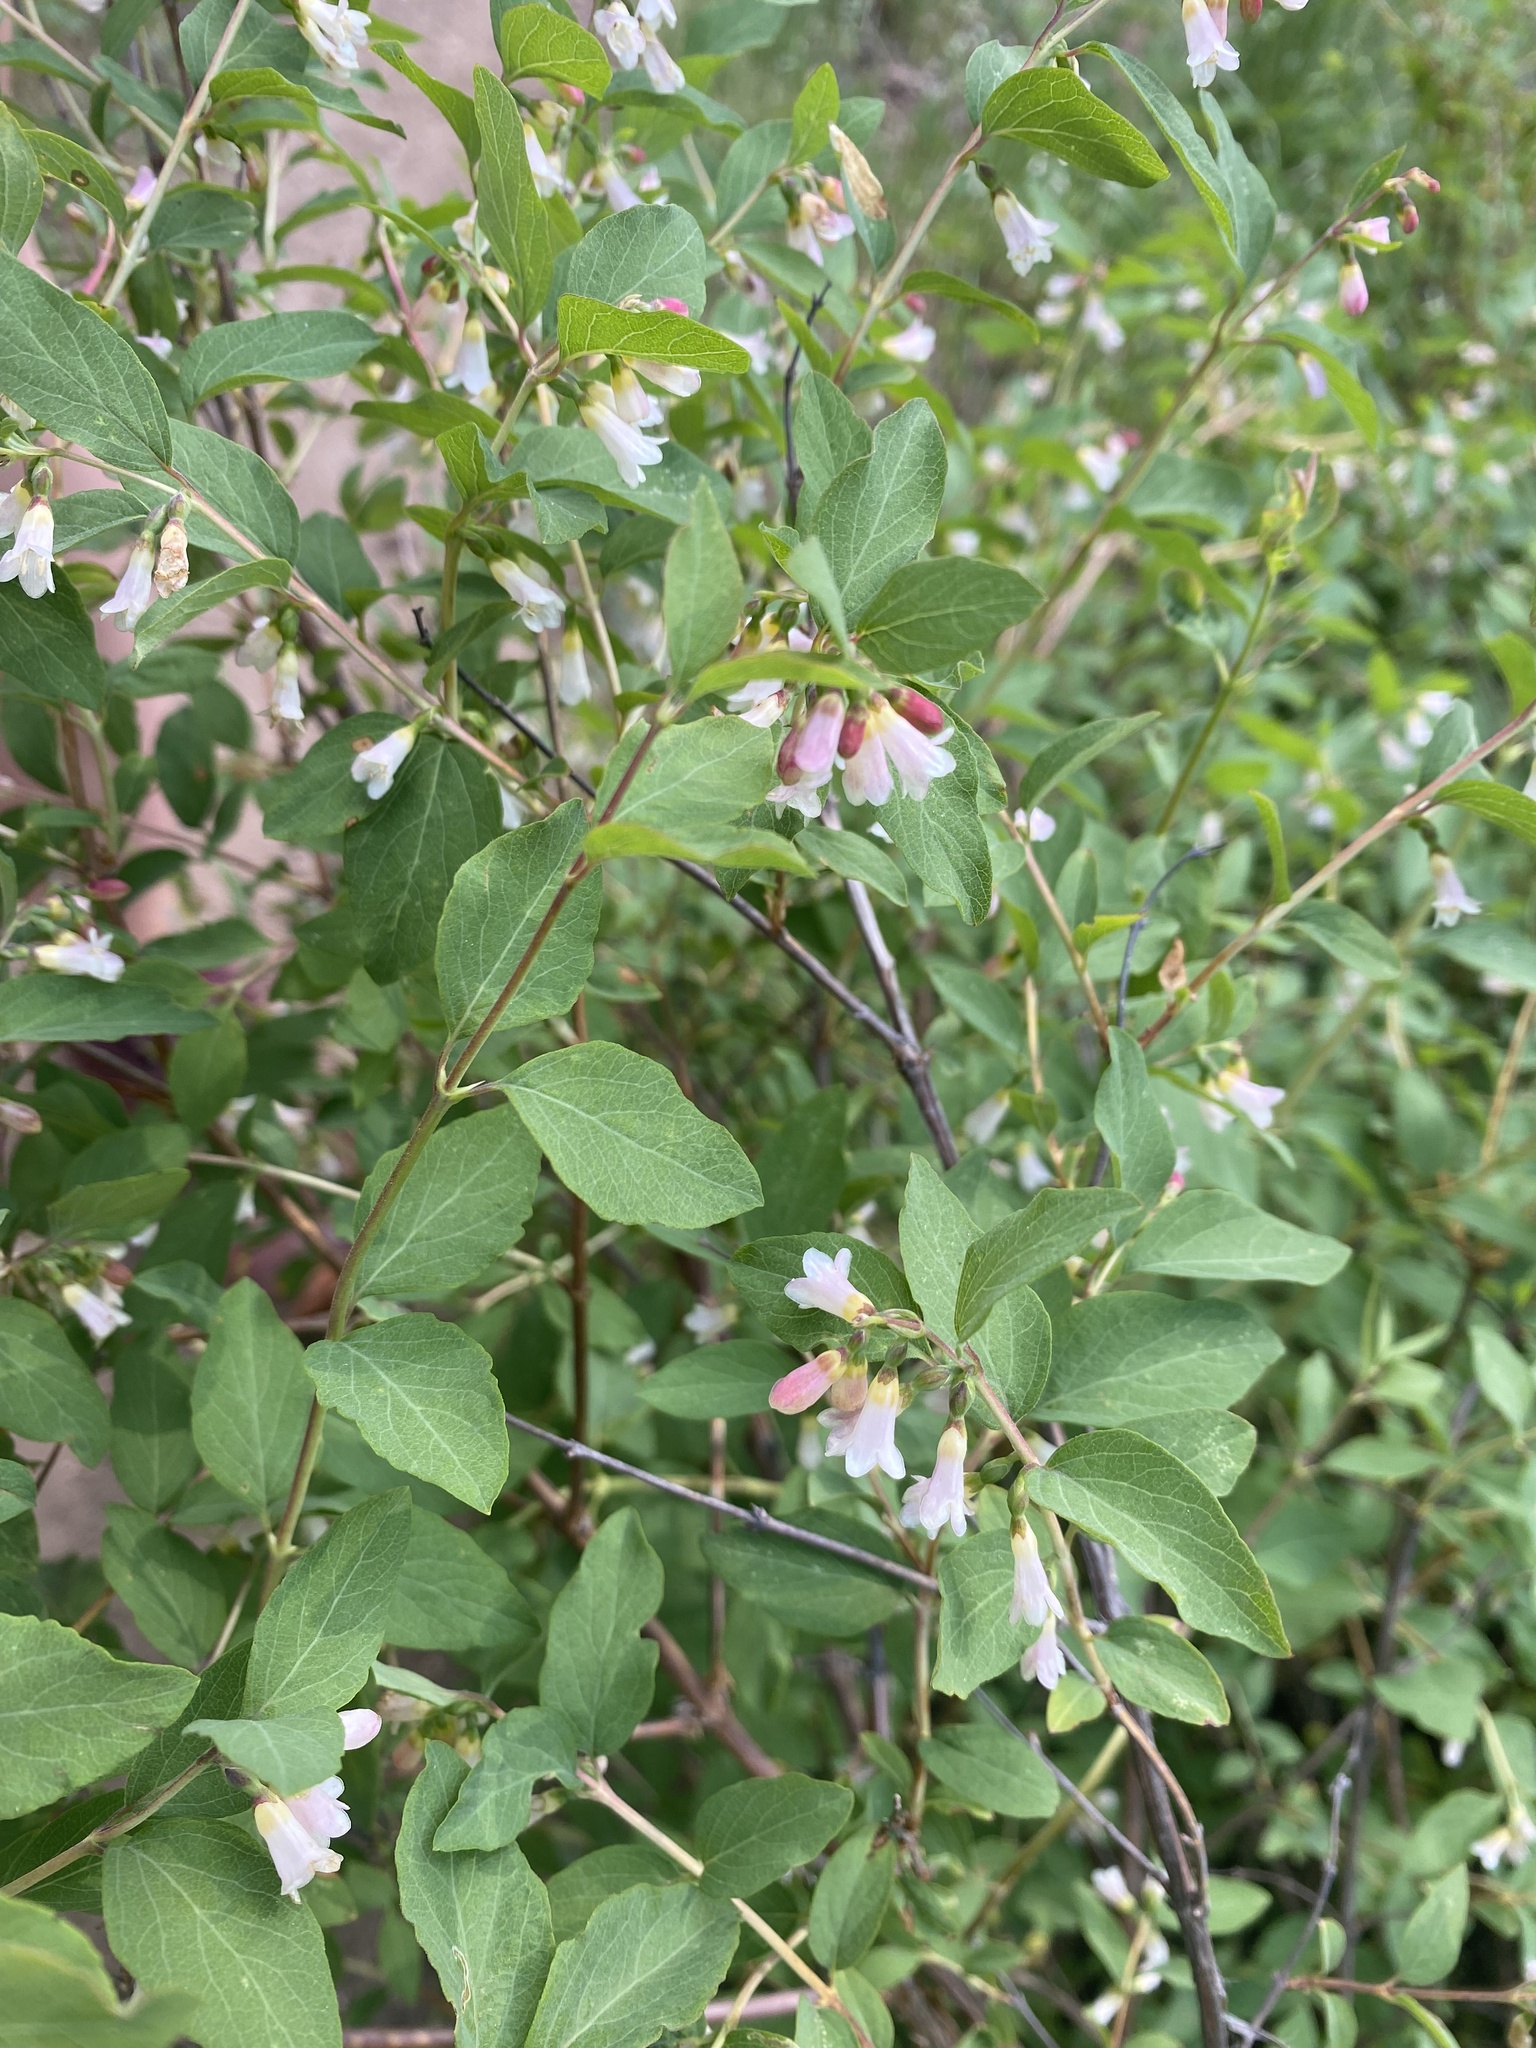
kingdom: Plantae
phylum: Tracheophyta
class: Magnoliopsida
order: Dipsacales
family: Caprifoliaceae
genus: Symphoricarpos
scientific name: Symphoricarpos rotundifolius
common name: Round-leaved snowberry
